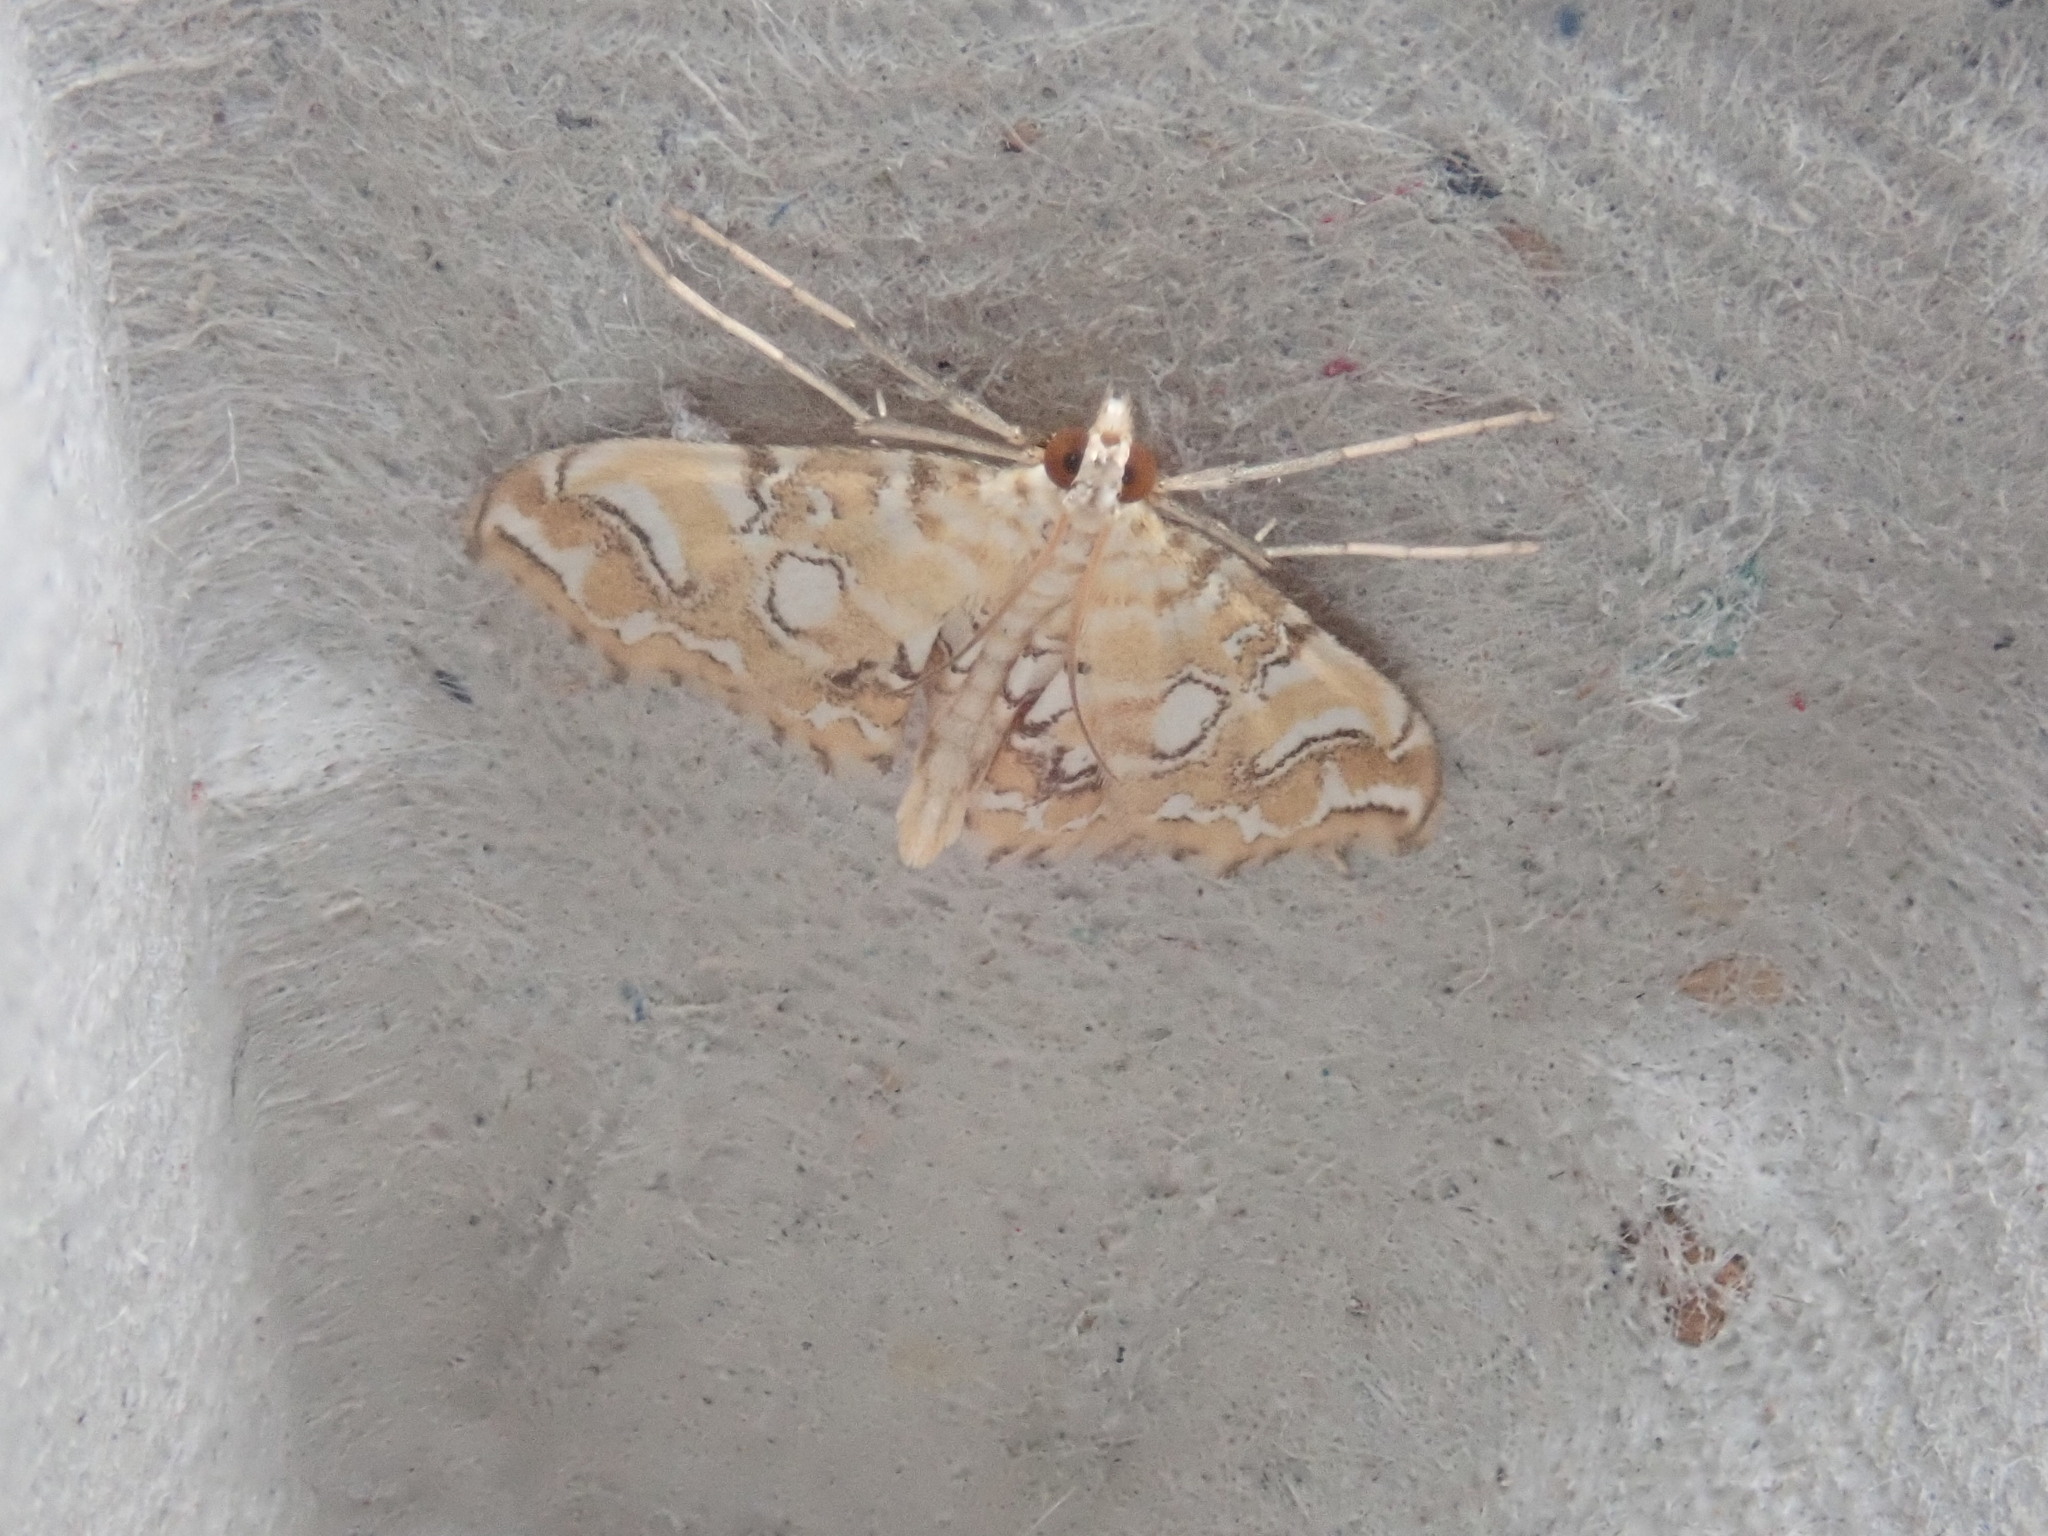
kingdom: Animalia
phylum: Arthropoda
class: Insecta
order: Lepidoptera
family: Crambidae
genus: Elophila
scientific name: Elophila icciusalis
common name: Pondside pyralid moth
